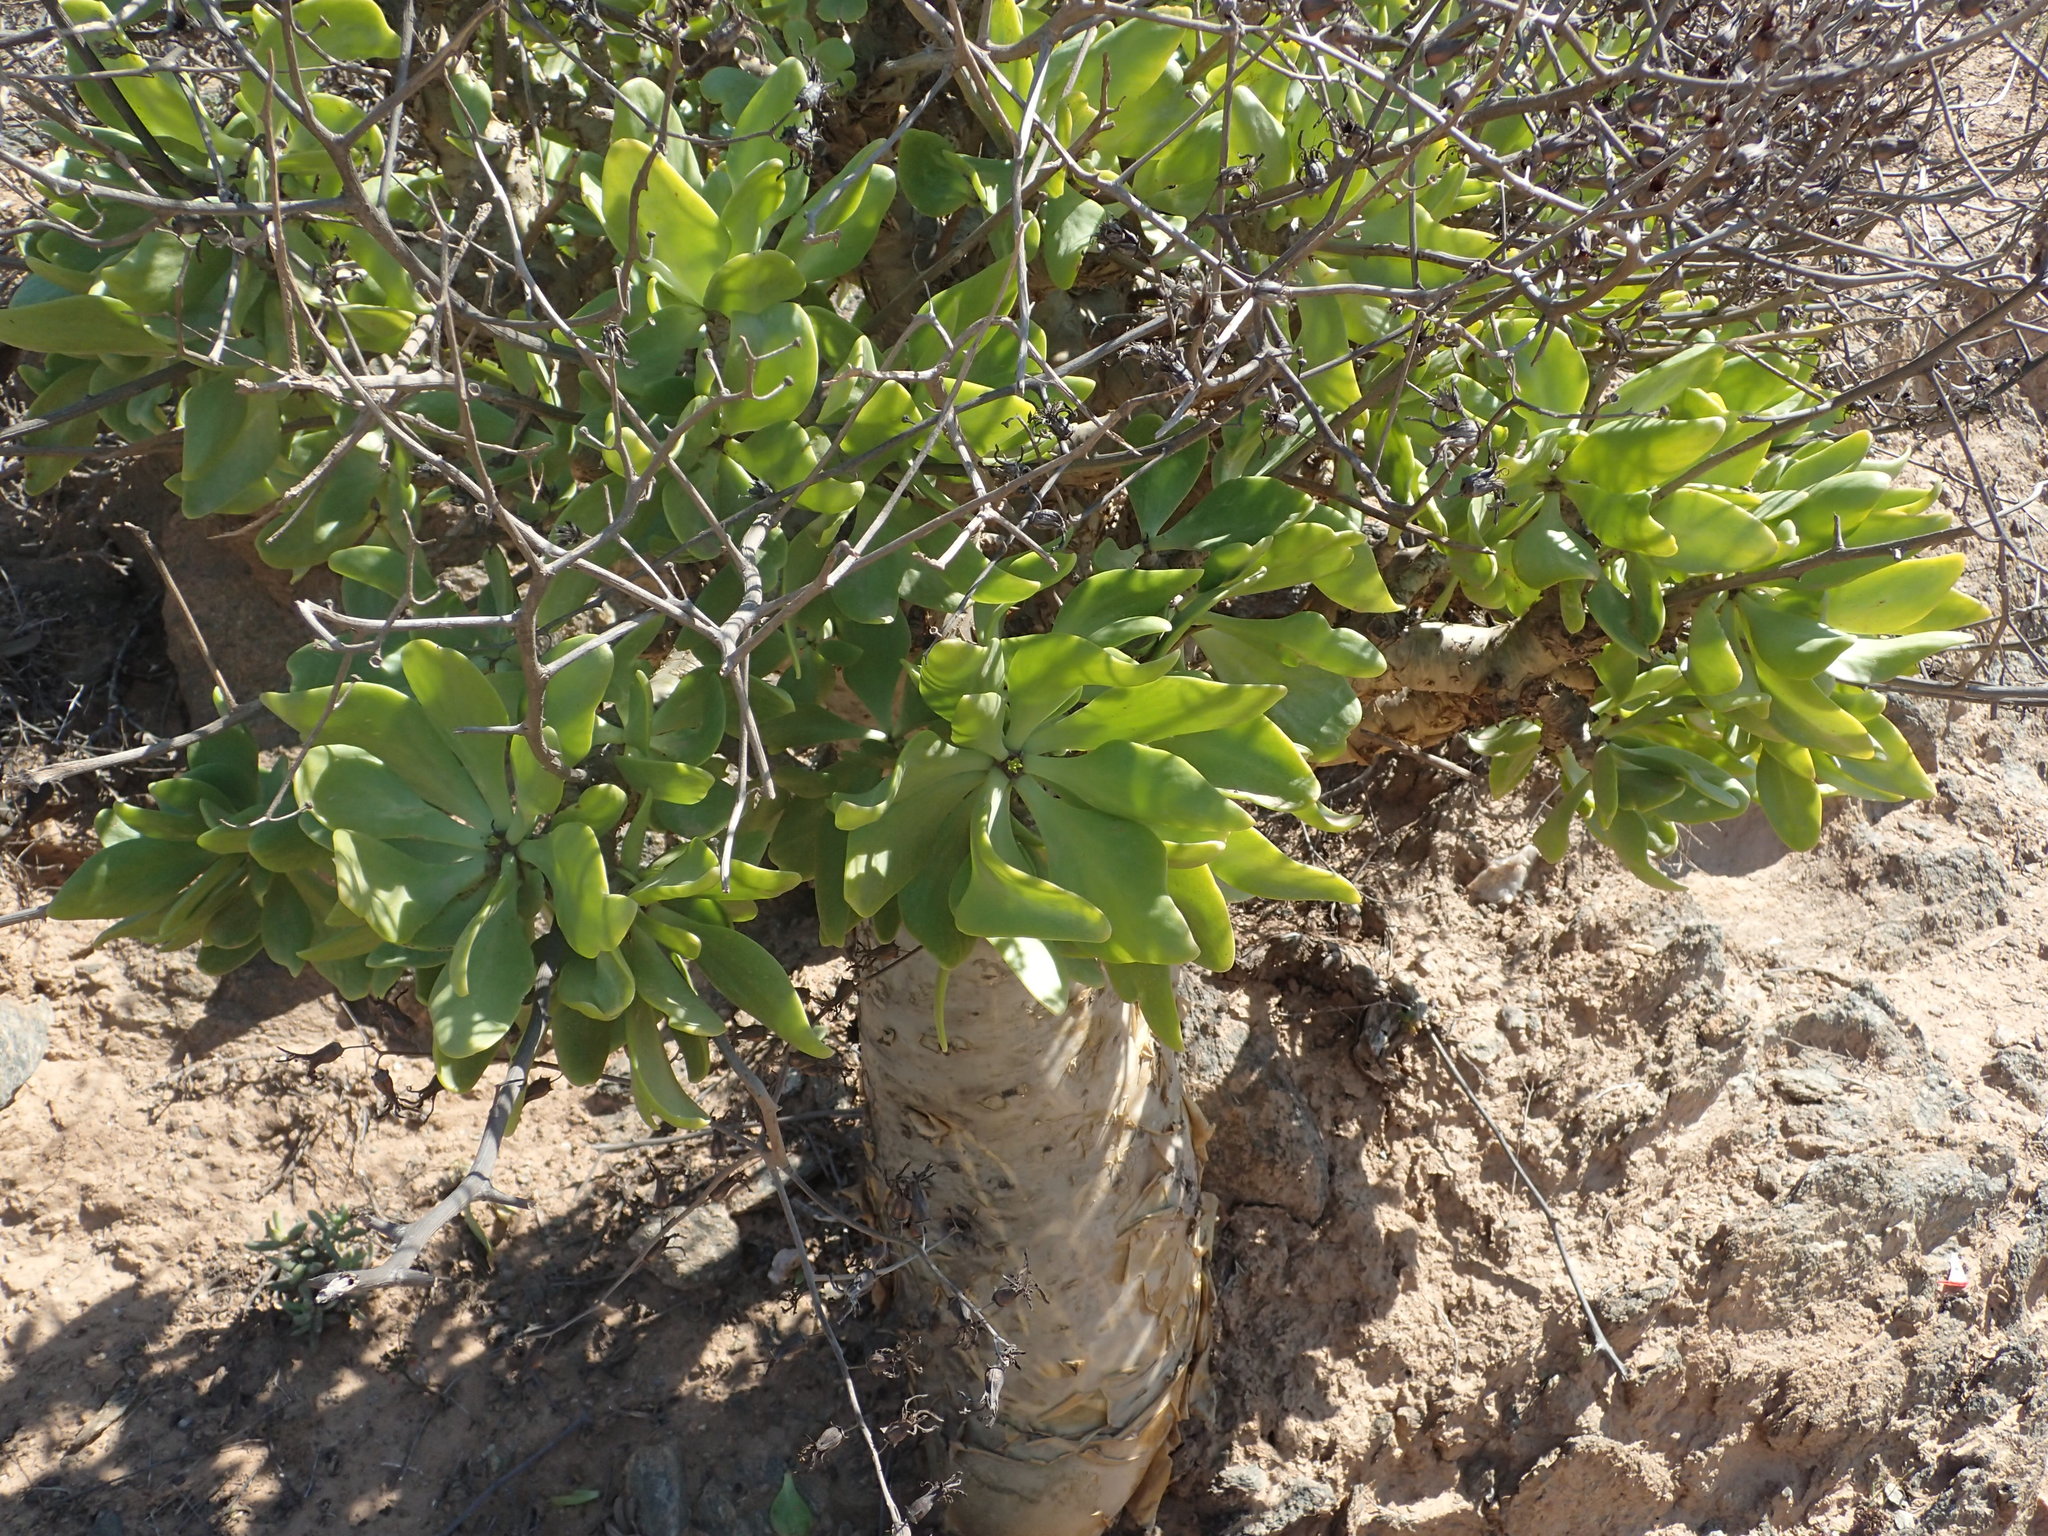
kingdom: Plantae
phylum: Tracheophyta
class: Magnoliopsida
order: Saxifragales
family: Crassulaceae
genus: Tylecodon
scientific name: Tylecodon paniculatus
